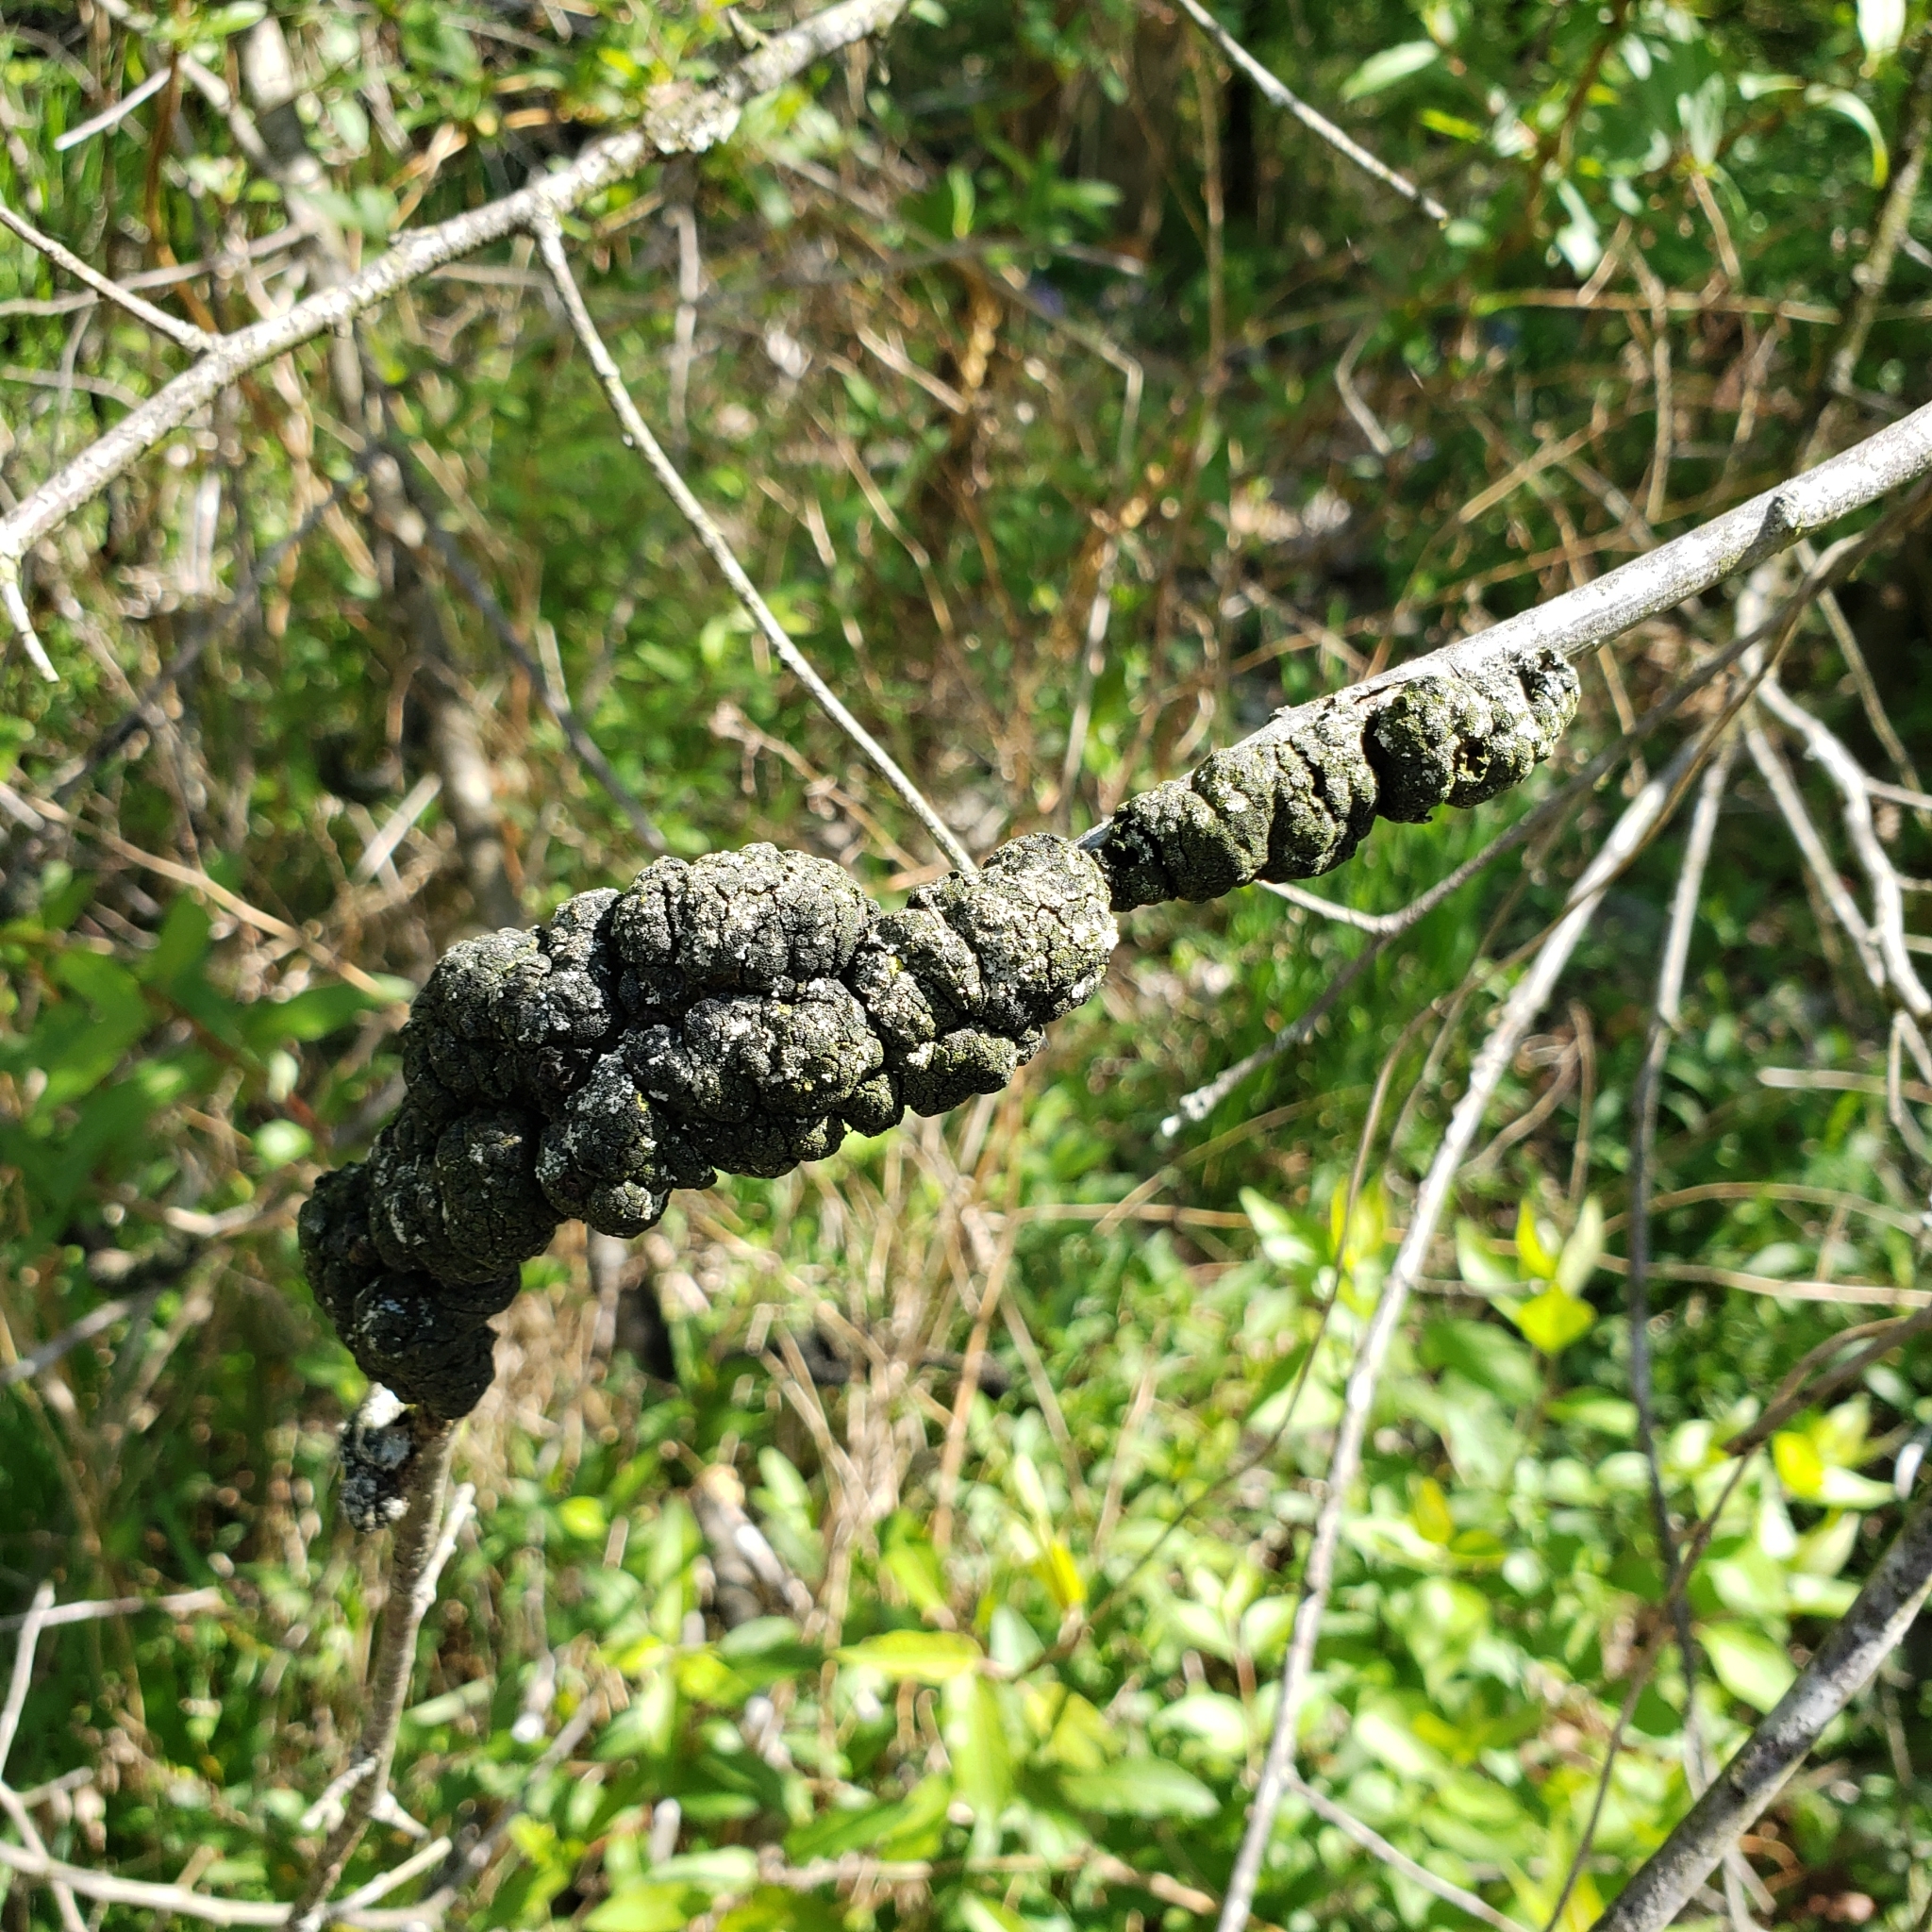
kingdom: Fungi
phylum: Ascomycota
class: Dothideomycetes
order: Venturiales
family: Venturiaceae
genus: Apiosporina
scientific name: Apiosporina morbosa
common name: Black knot
